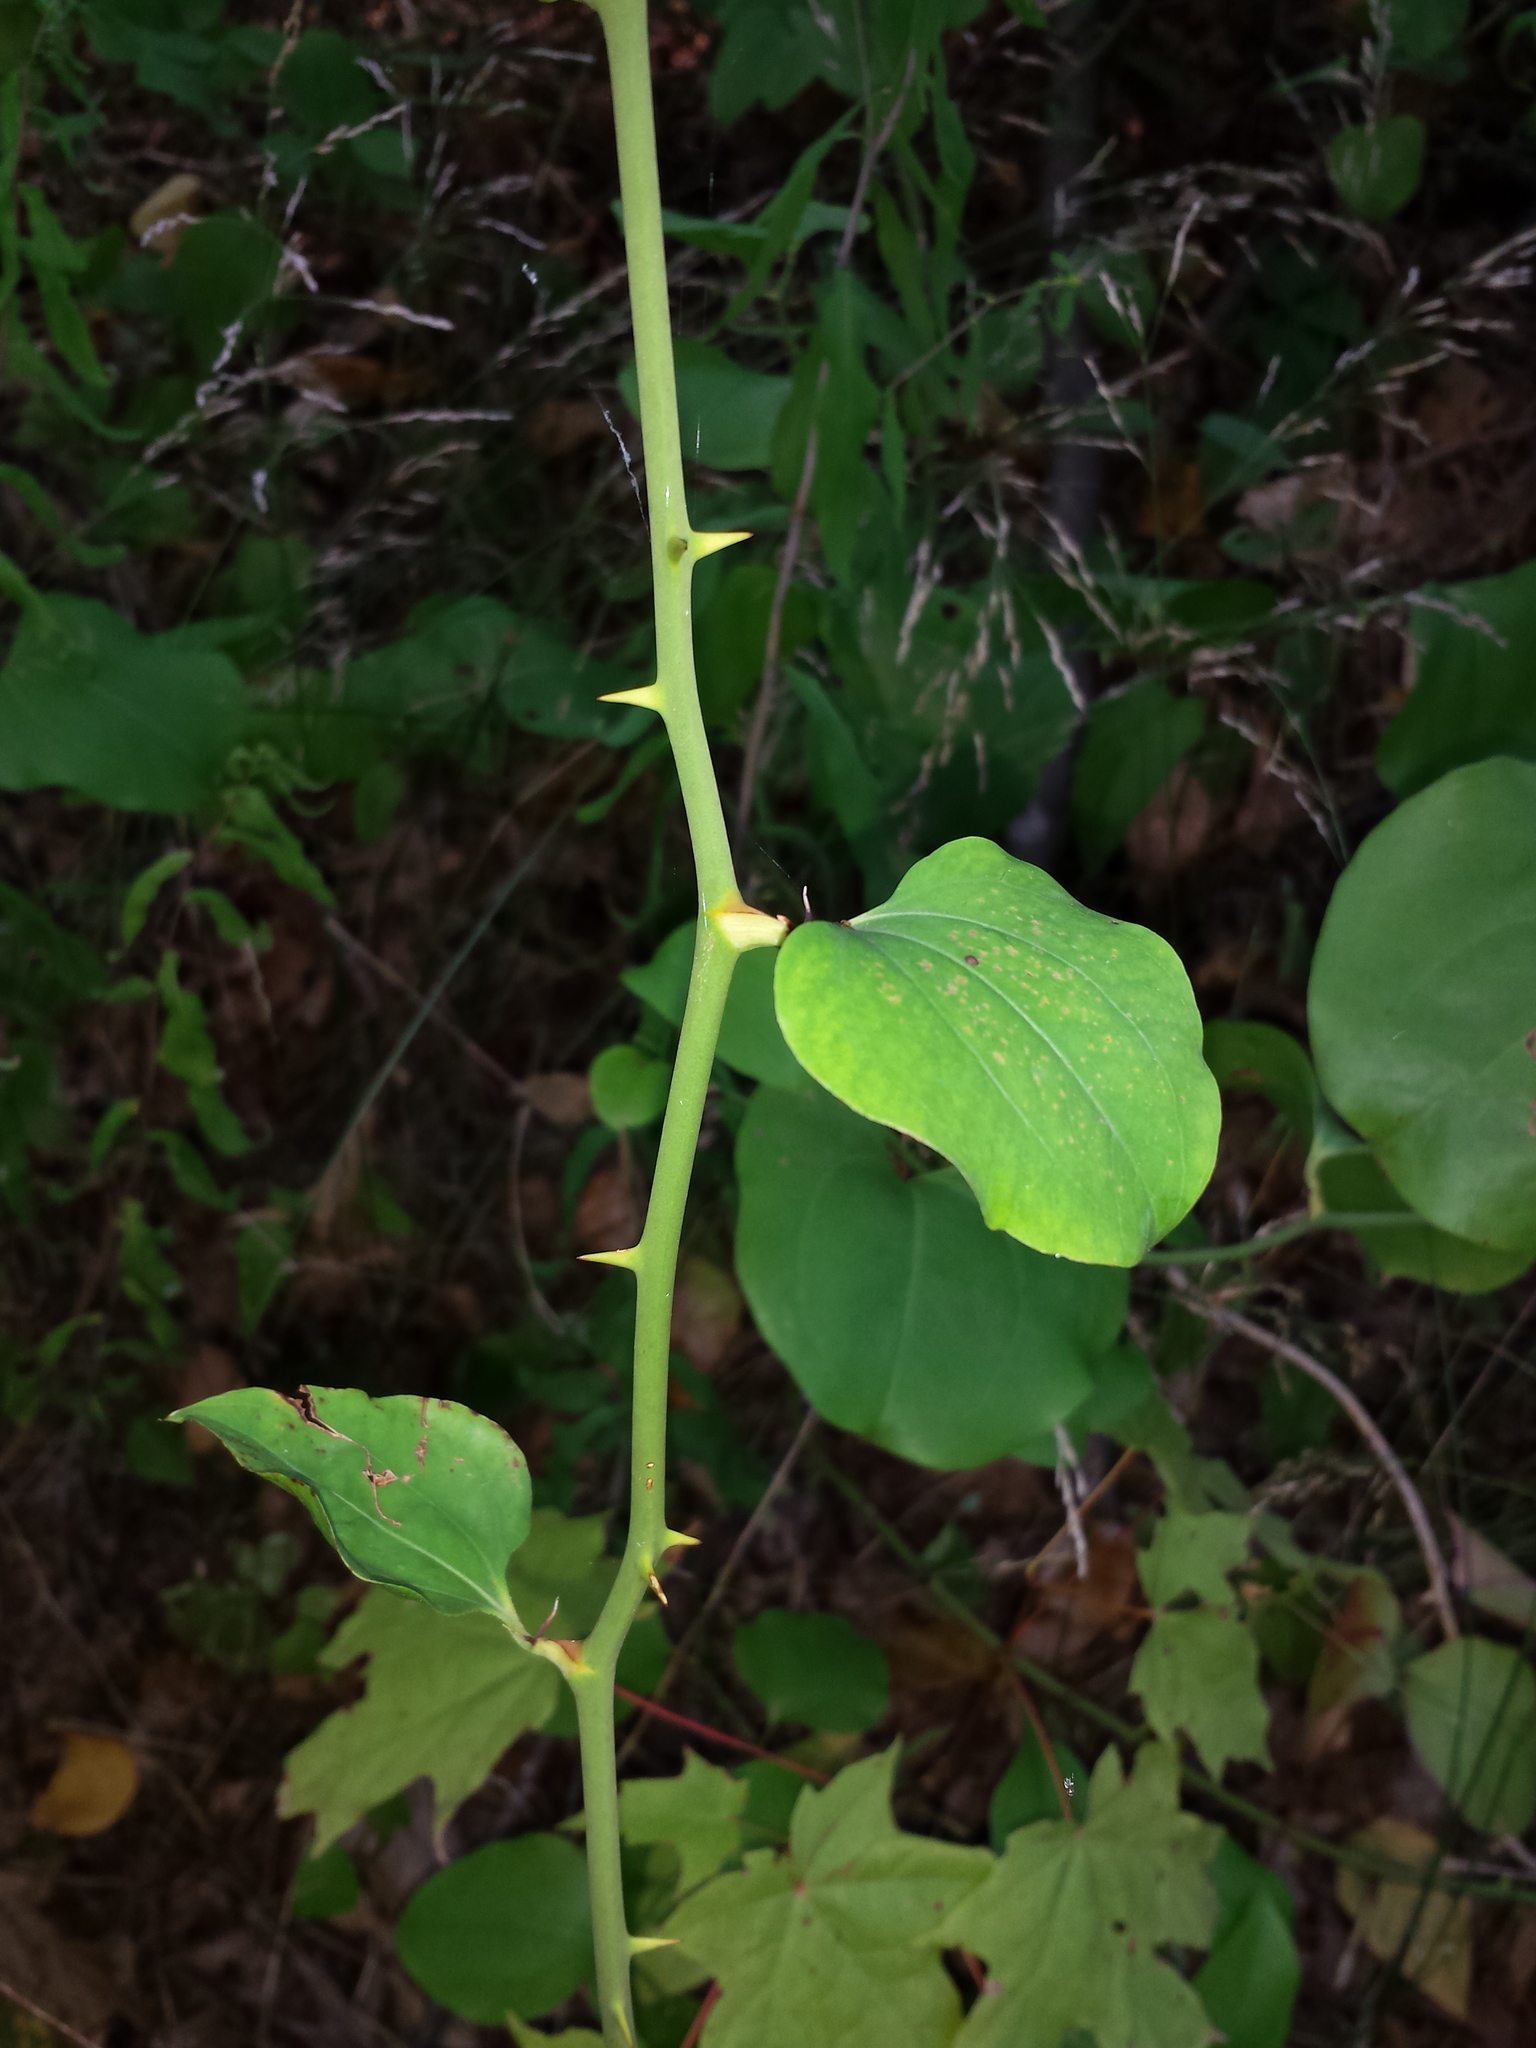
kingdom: Plantae
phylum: Tracheophyta
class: Liliopsida
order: Liliales
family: Smilacaceae
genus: Smilax
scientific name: Smilax rotundifolia
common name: Bullbriar
